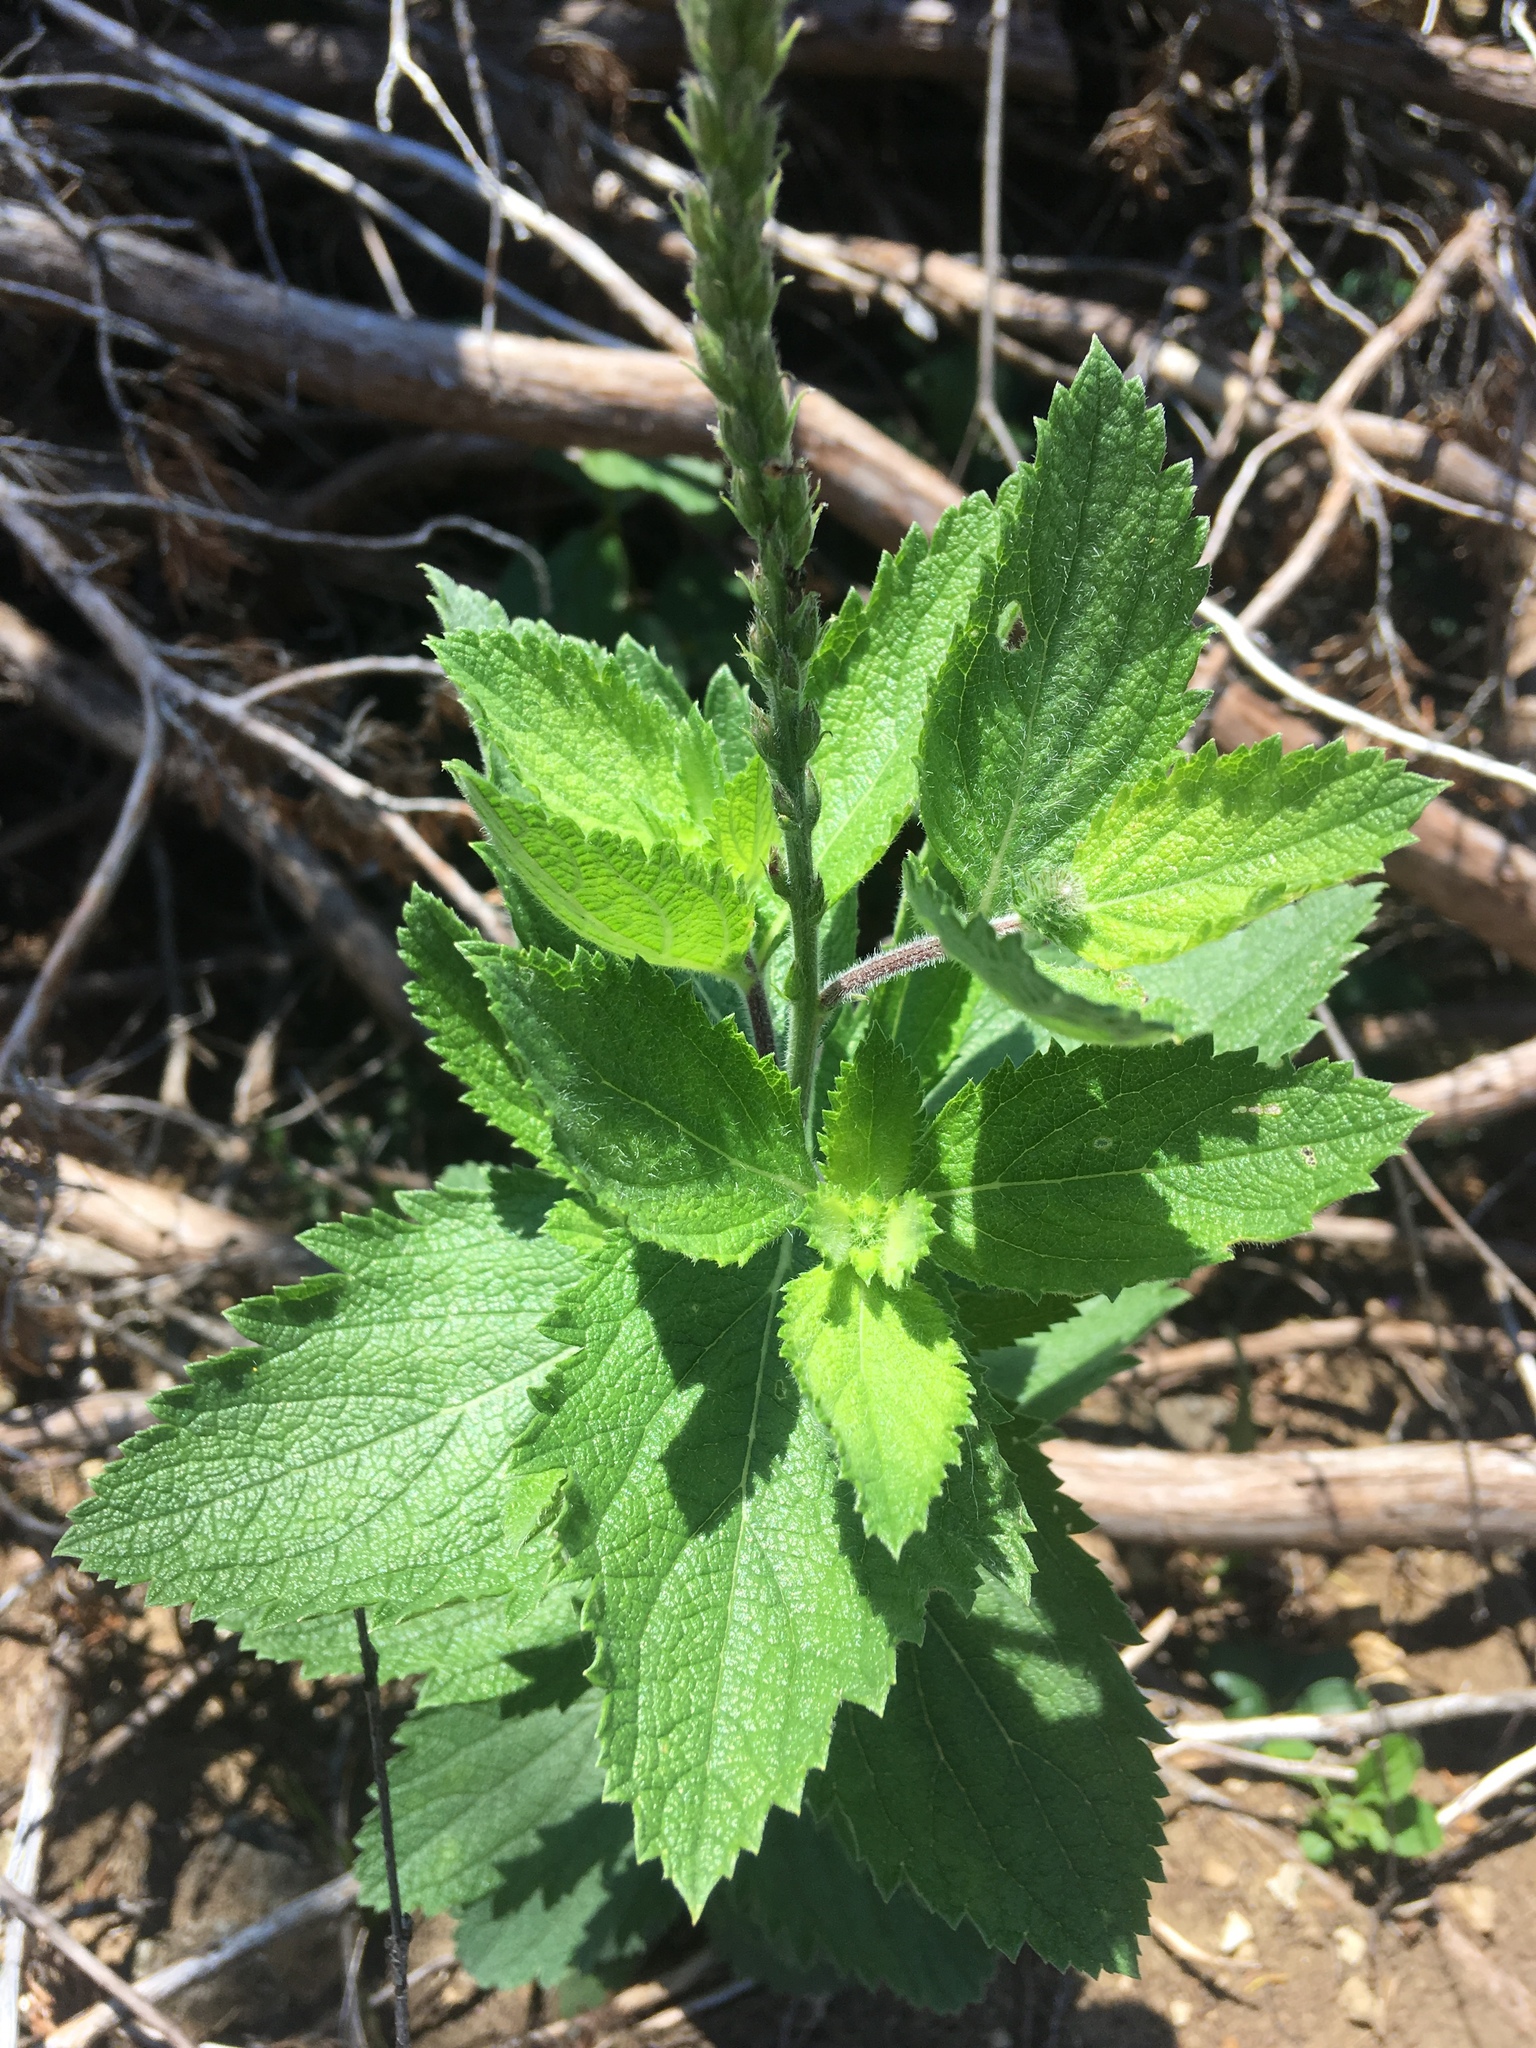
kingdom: Plantae
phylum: Tracheophyta
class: Magnoliopsida
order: Lamiales
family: Verbenaceae
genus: Verbena
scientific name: Verbena stricta
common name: Hoary vervain
